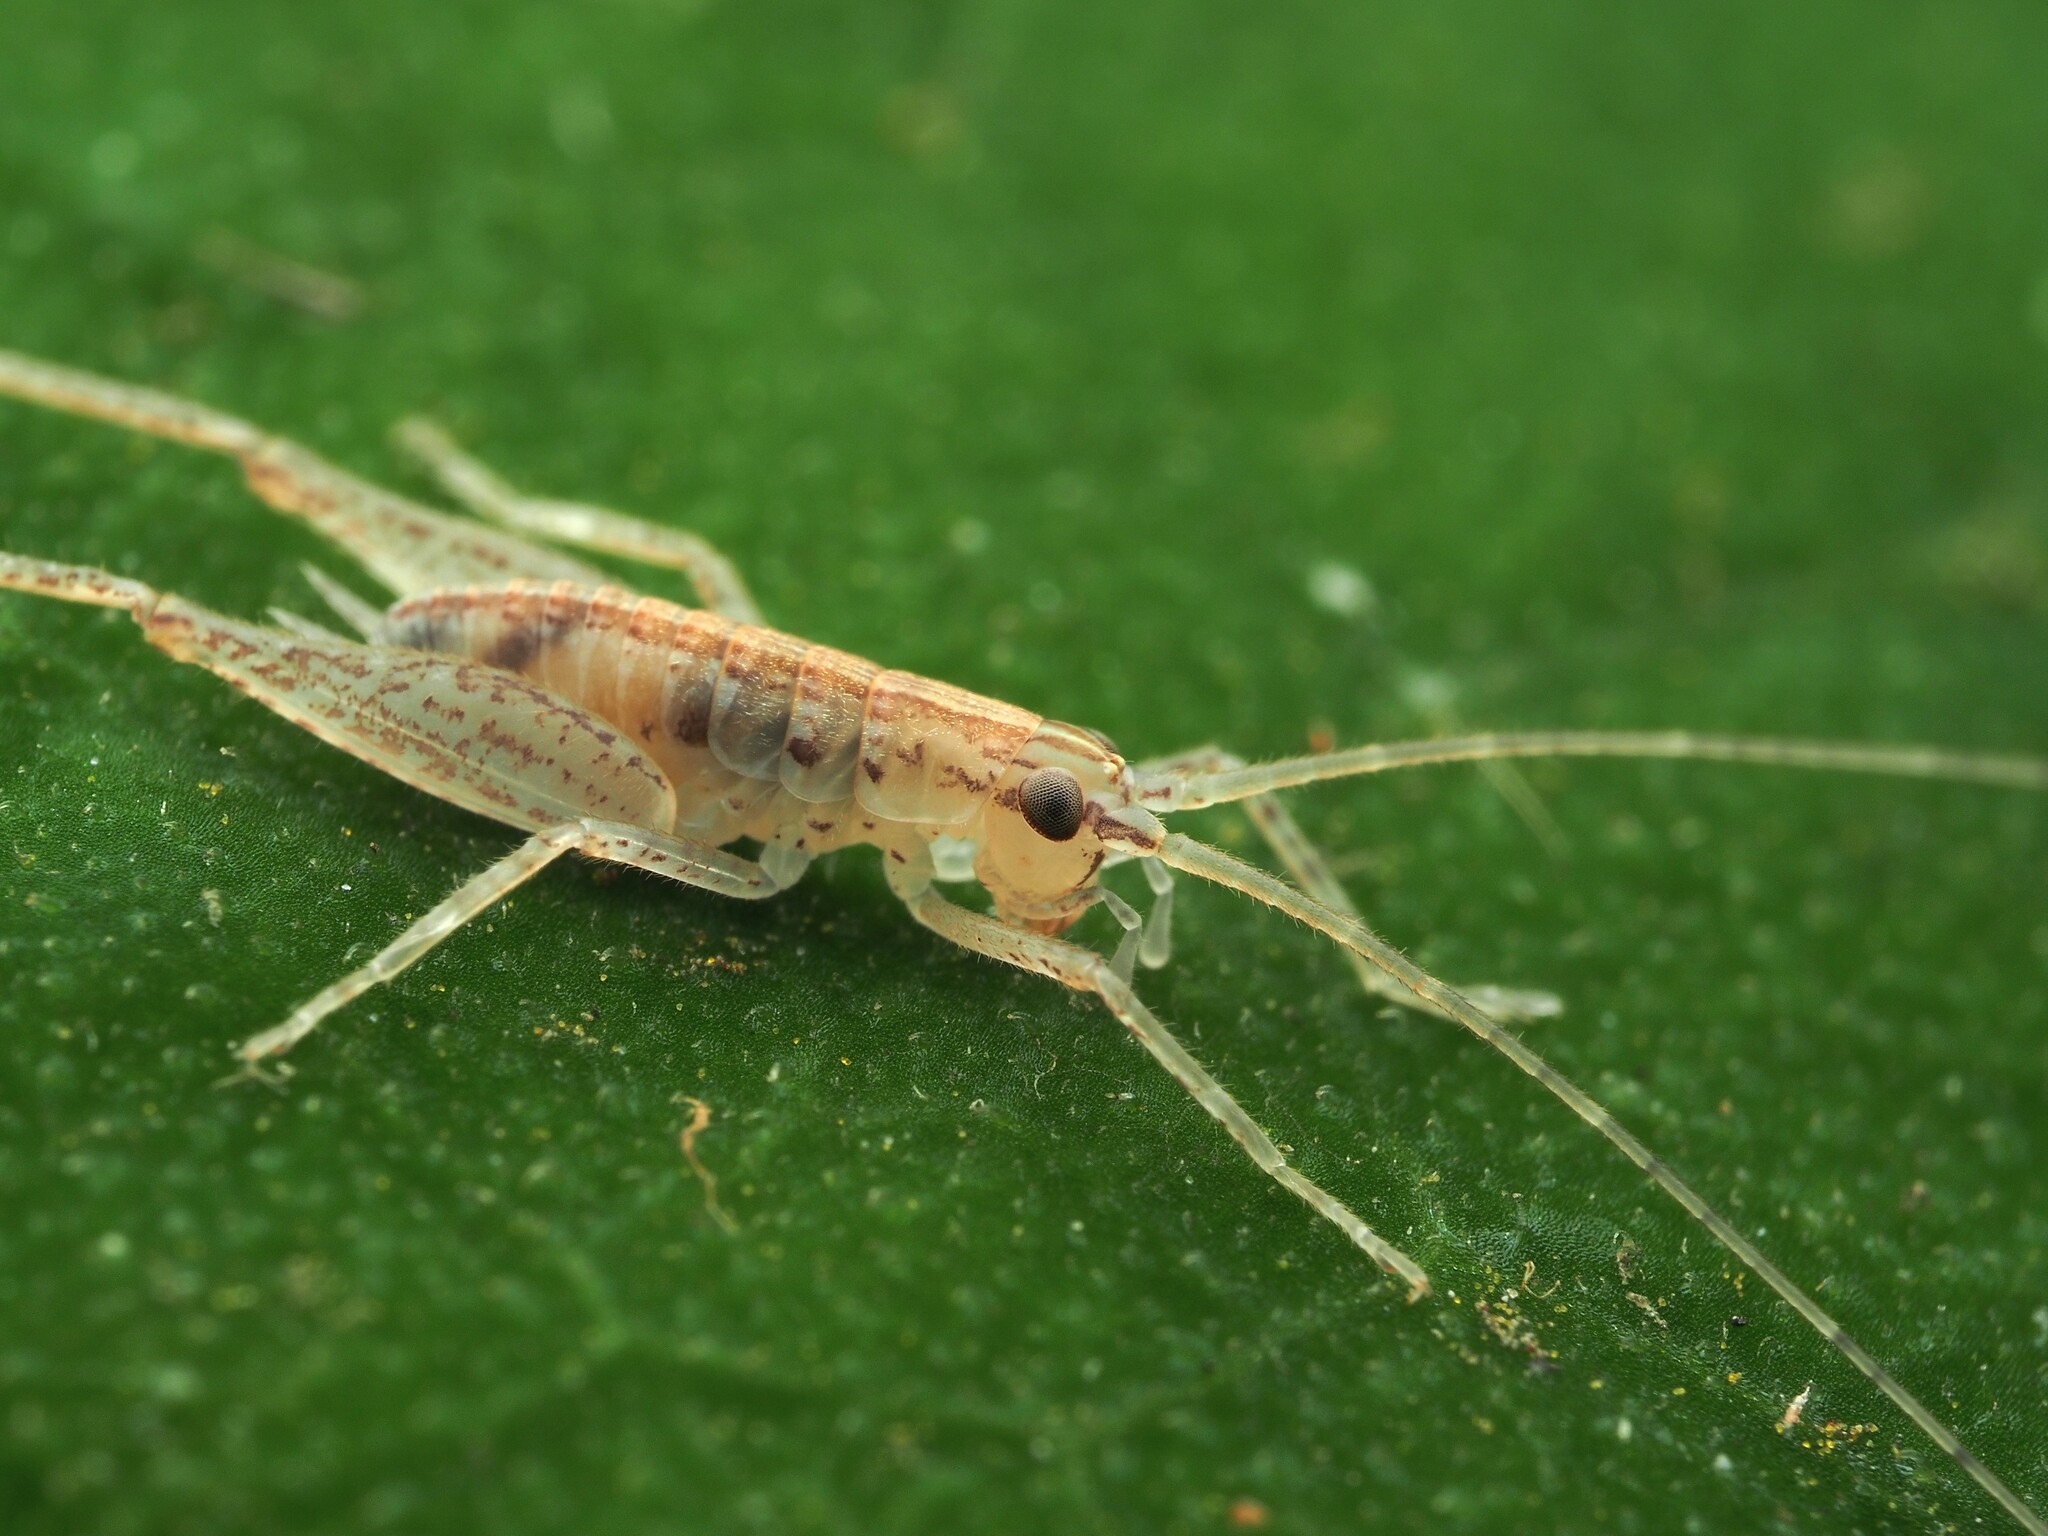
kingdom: Animalia
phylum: Arthropoda
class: Insecta
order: Orthoptera
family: Rhaphidophoridae
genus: Talitropsis
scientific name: Talitropsis poduroides
